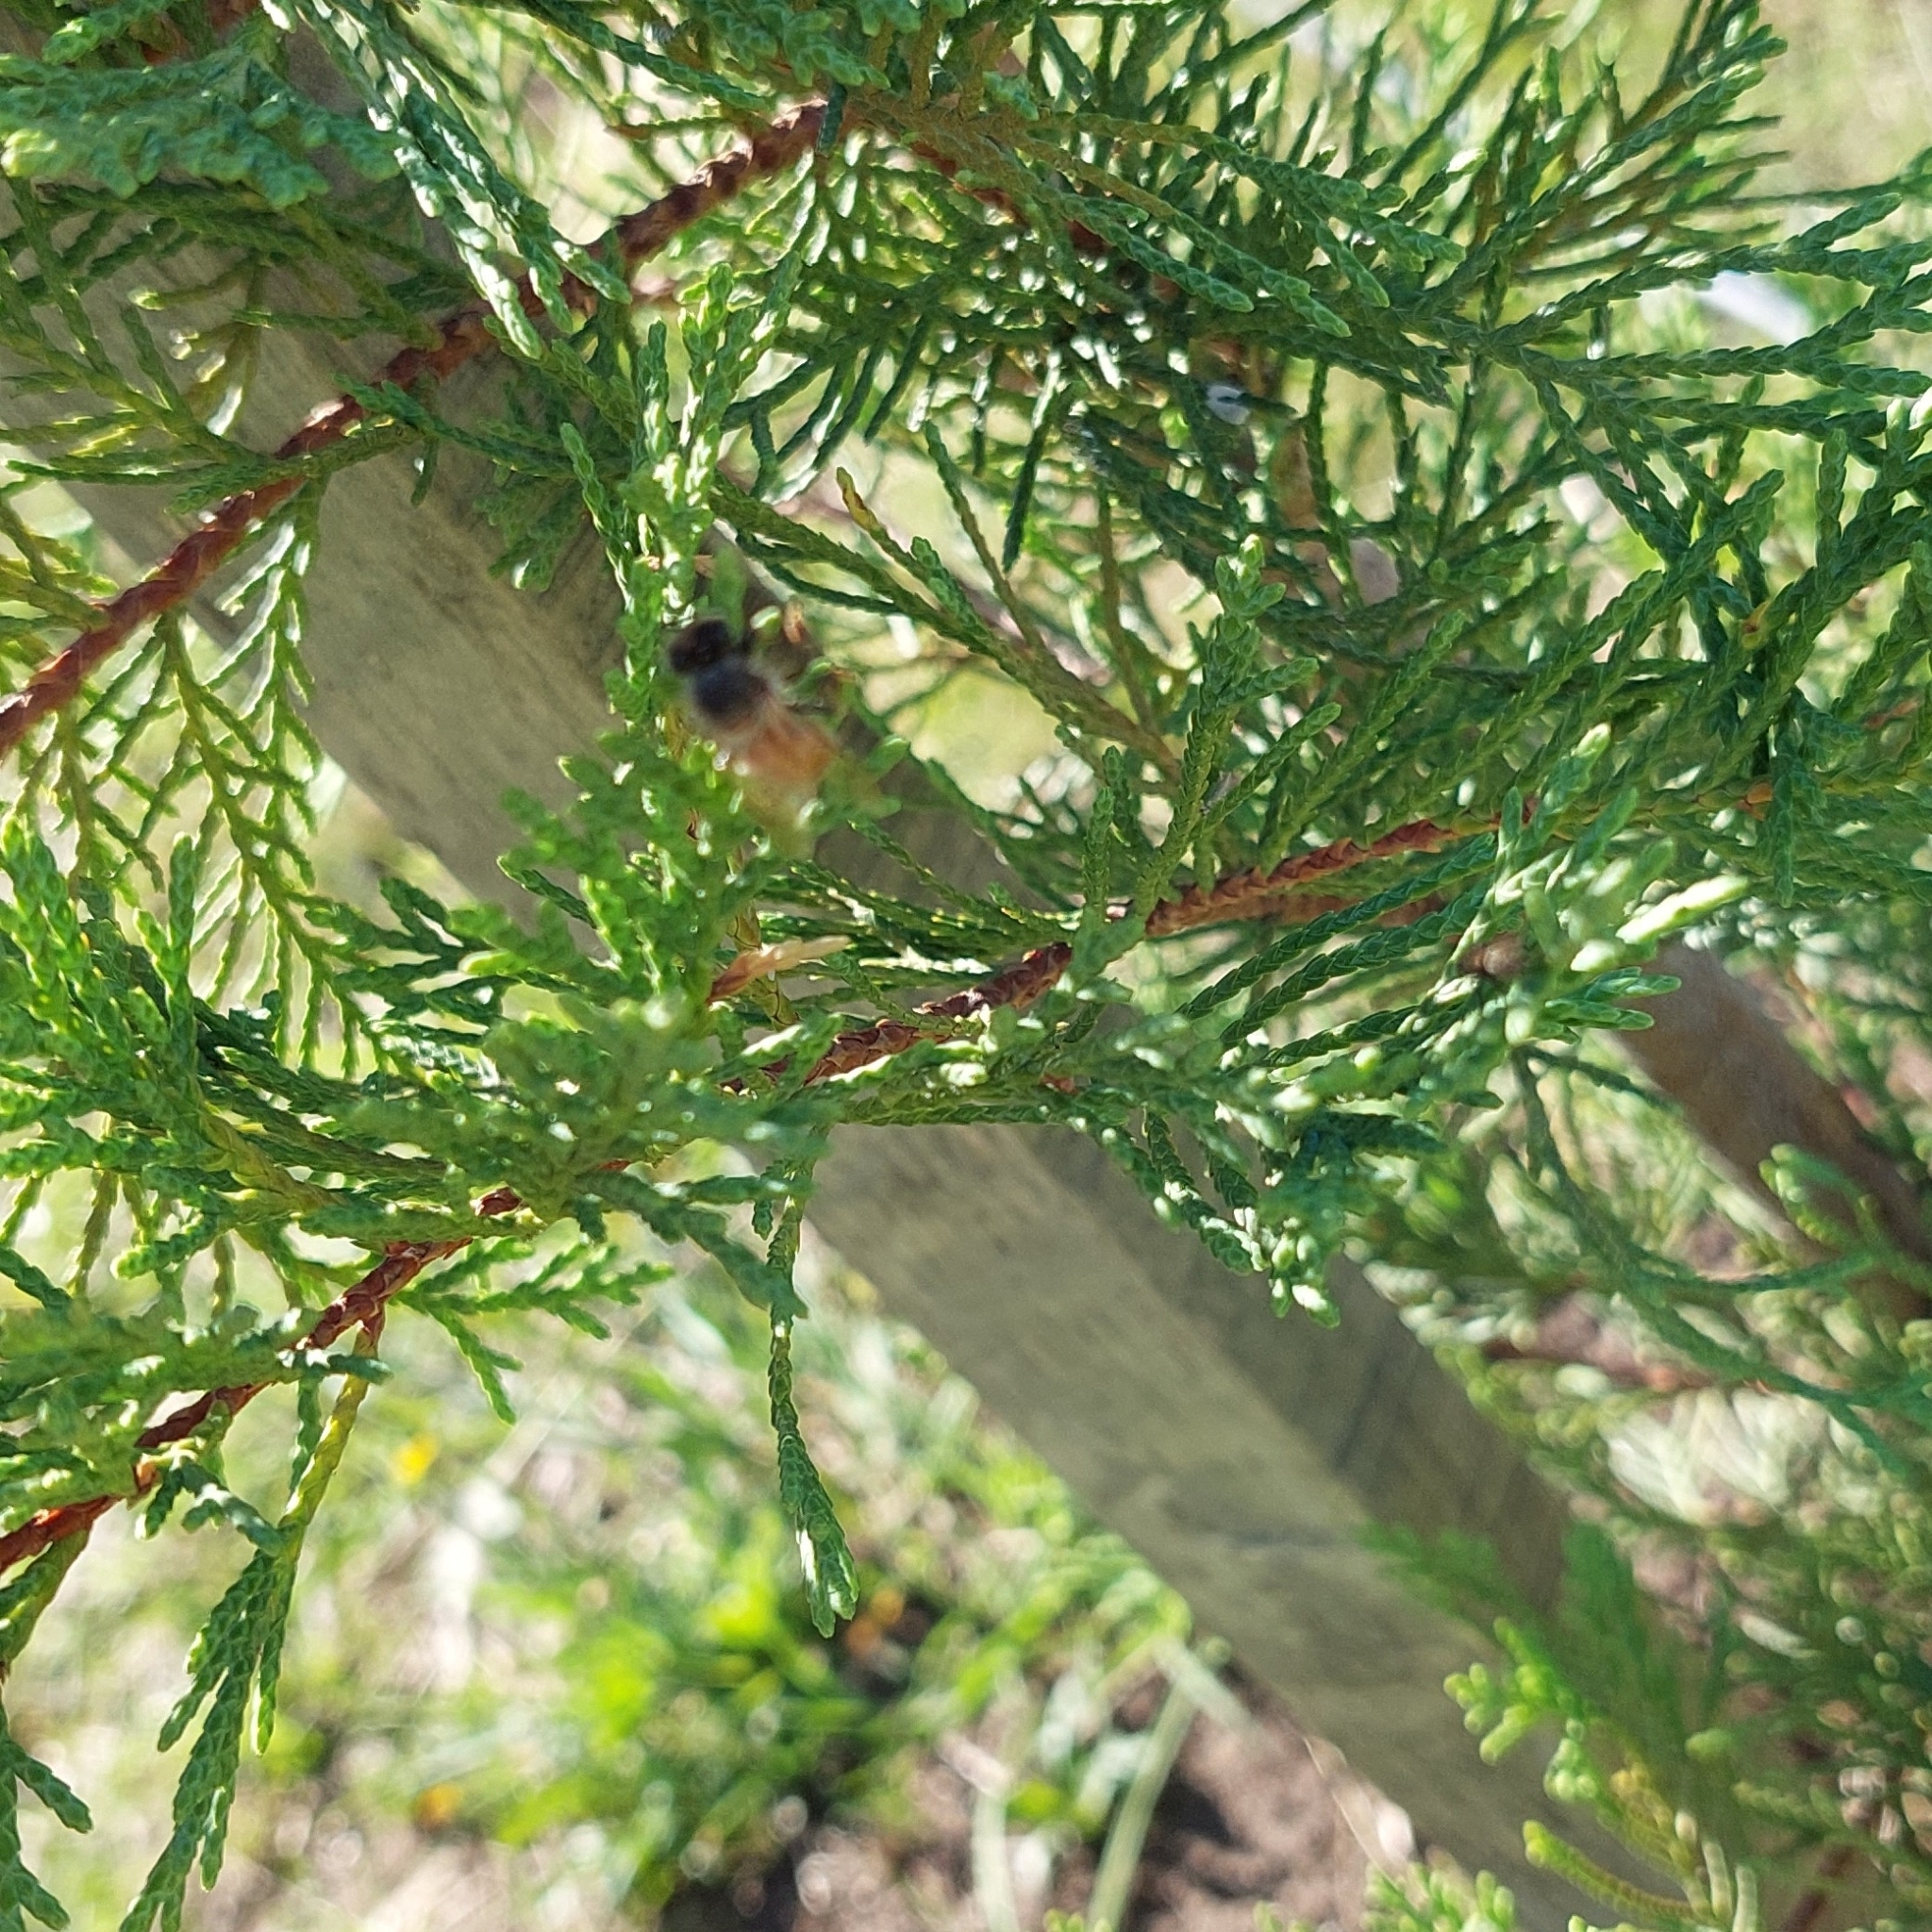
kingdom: Animalia
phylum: Arthropoda
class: Insecta
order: Hymenoptera
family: Apidae
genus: Apis
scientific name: Apis mellifera
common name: Honey bee
